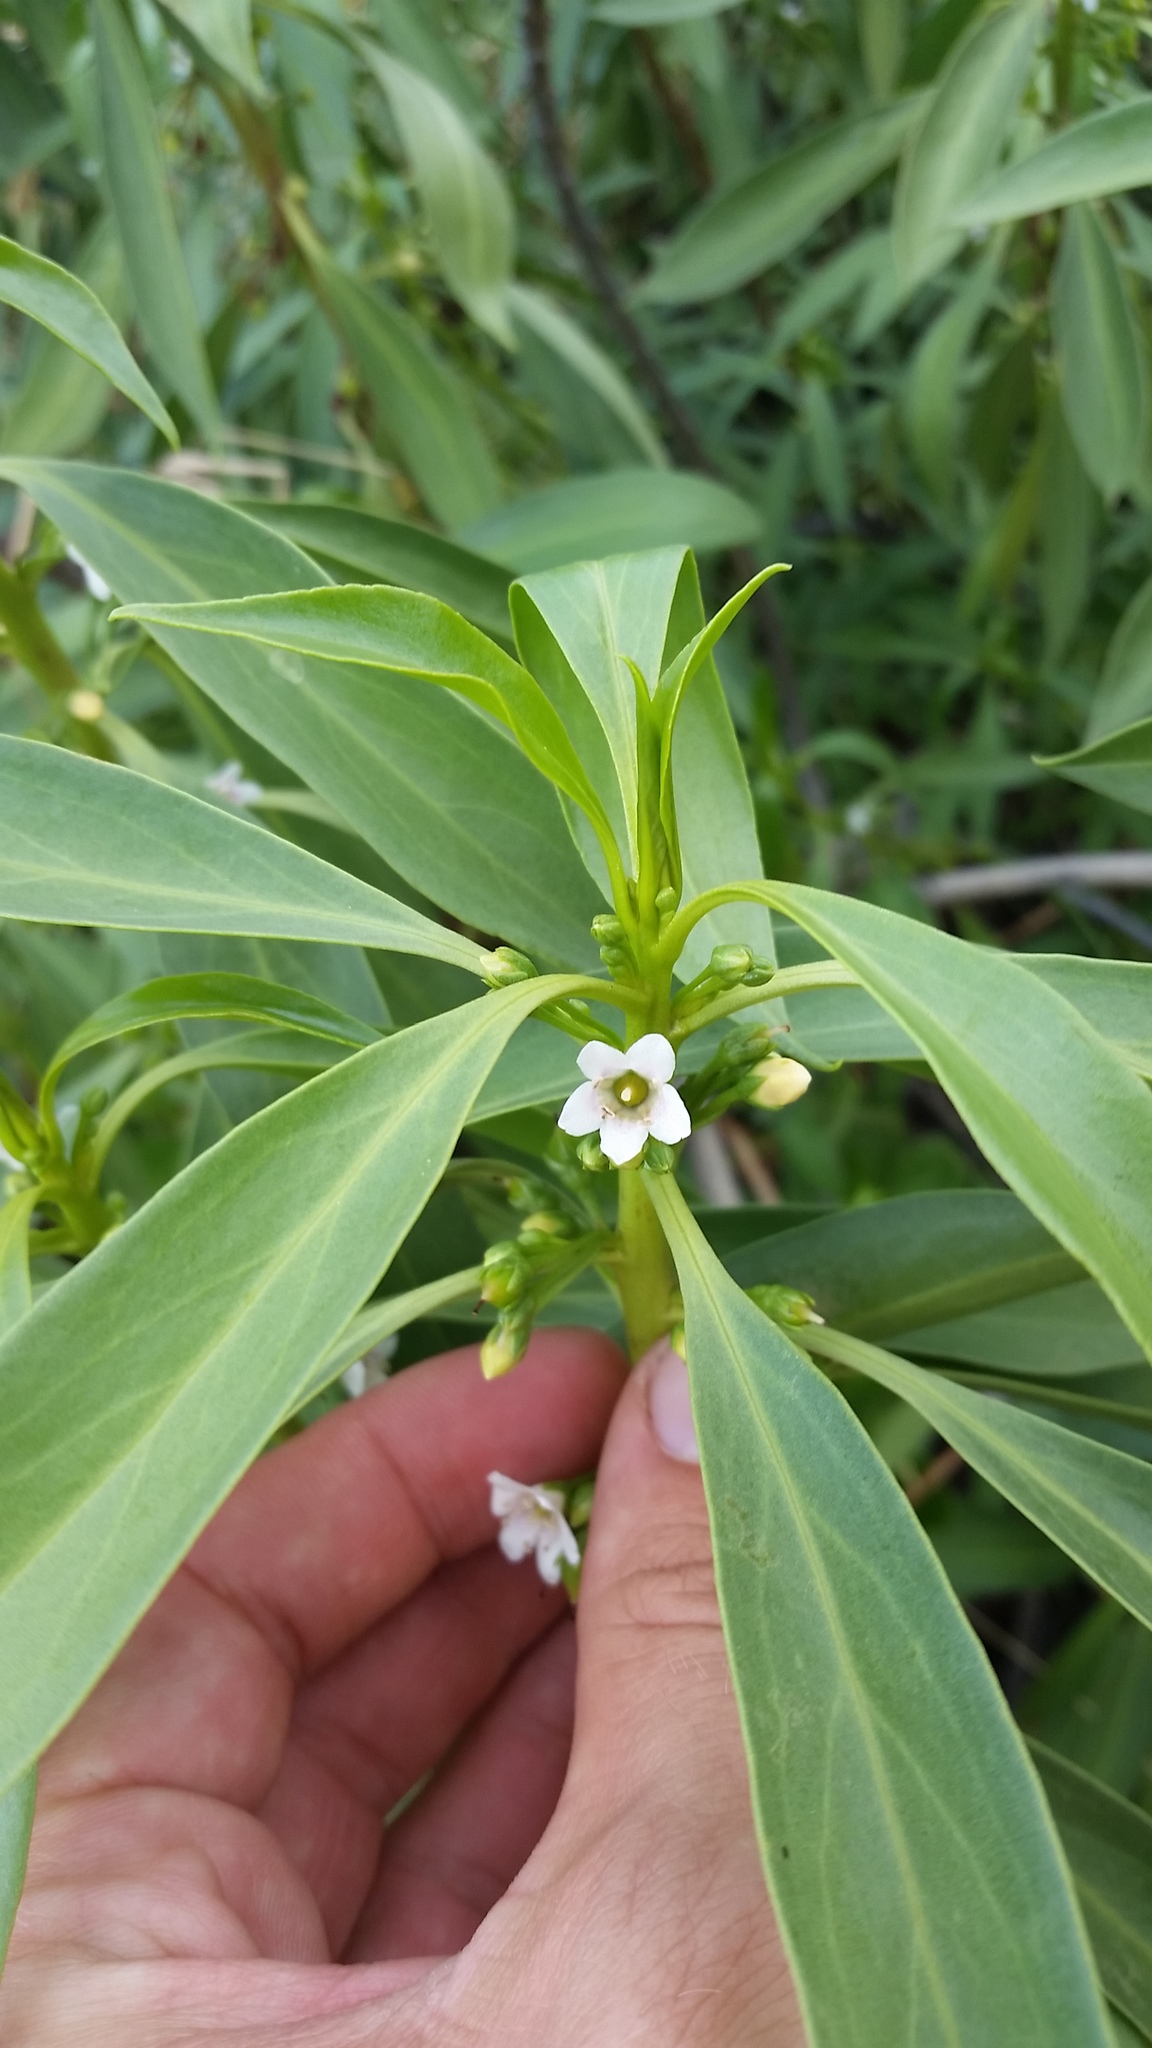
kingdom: Plantae
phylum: Tracheophyta
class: Magnoliopsida
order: Lamiales
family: Scrophulariaceae
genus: Myoporum
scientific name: Myoporum sandwicense
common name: Bastard-sandalwood
